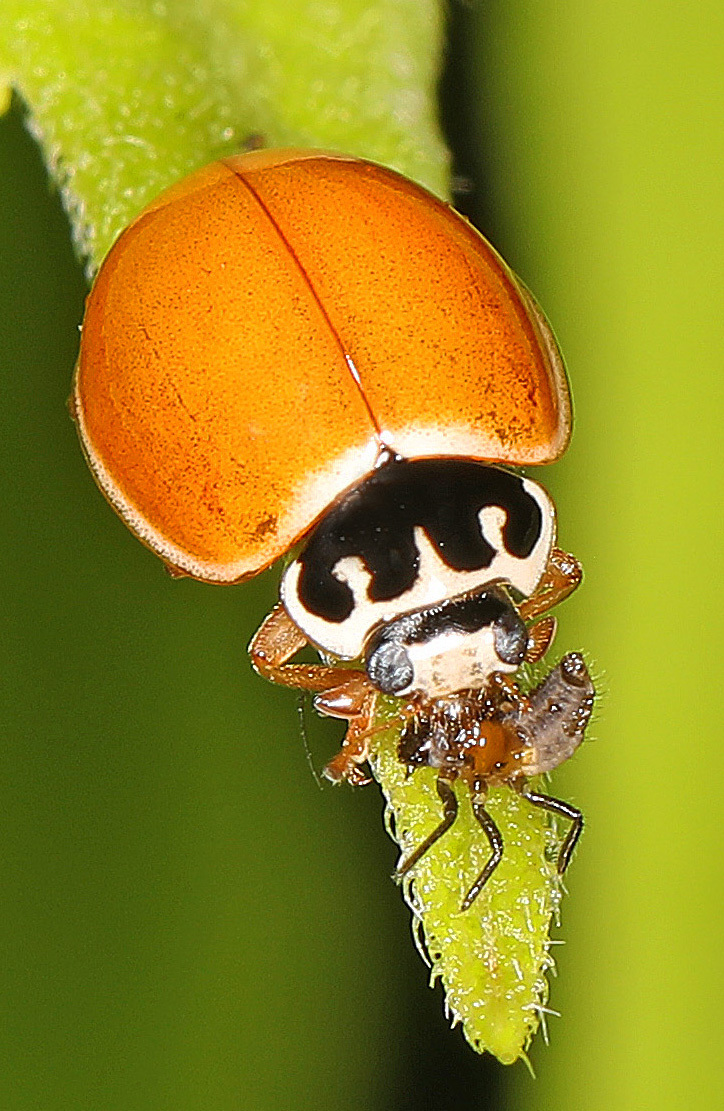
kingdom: Animalia
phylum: Arthropoda
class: Insecta
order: Coleoptera
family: Coccinellidae
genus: Cycloneda
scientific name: Cycloneda munda
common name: Polished lady beetle
